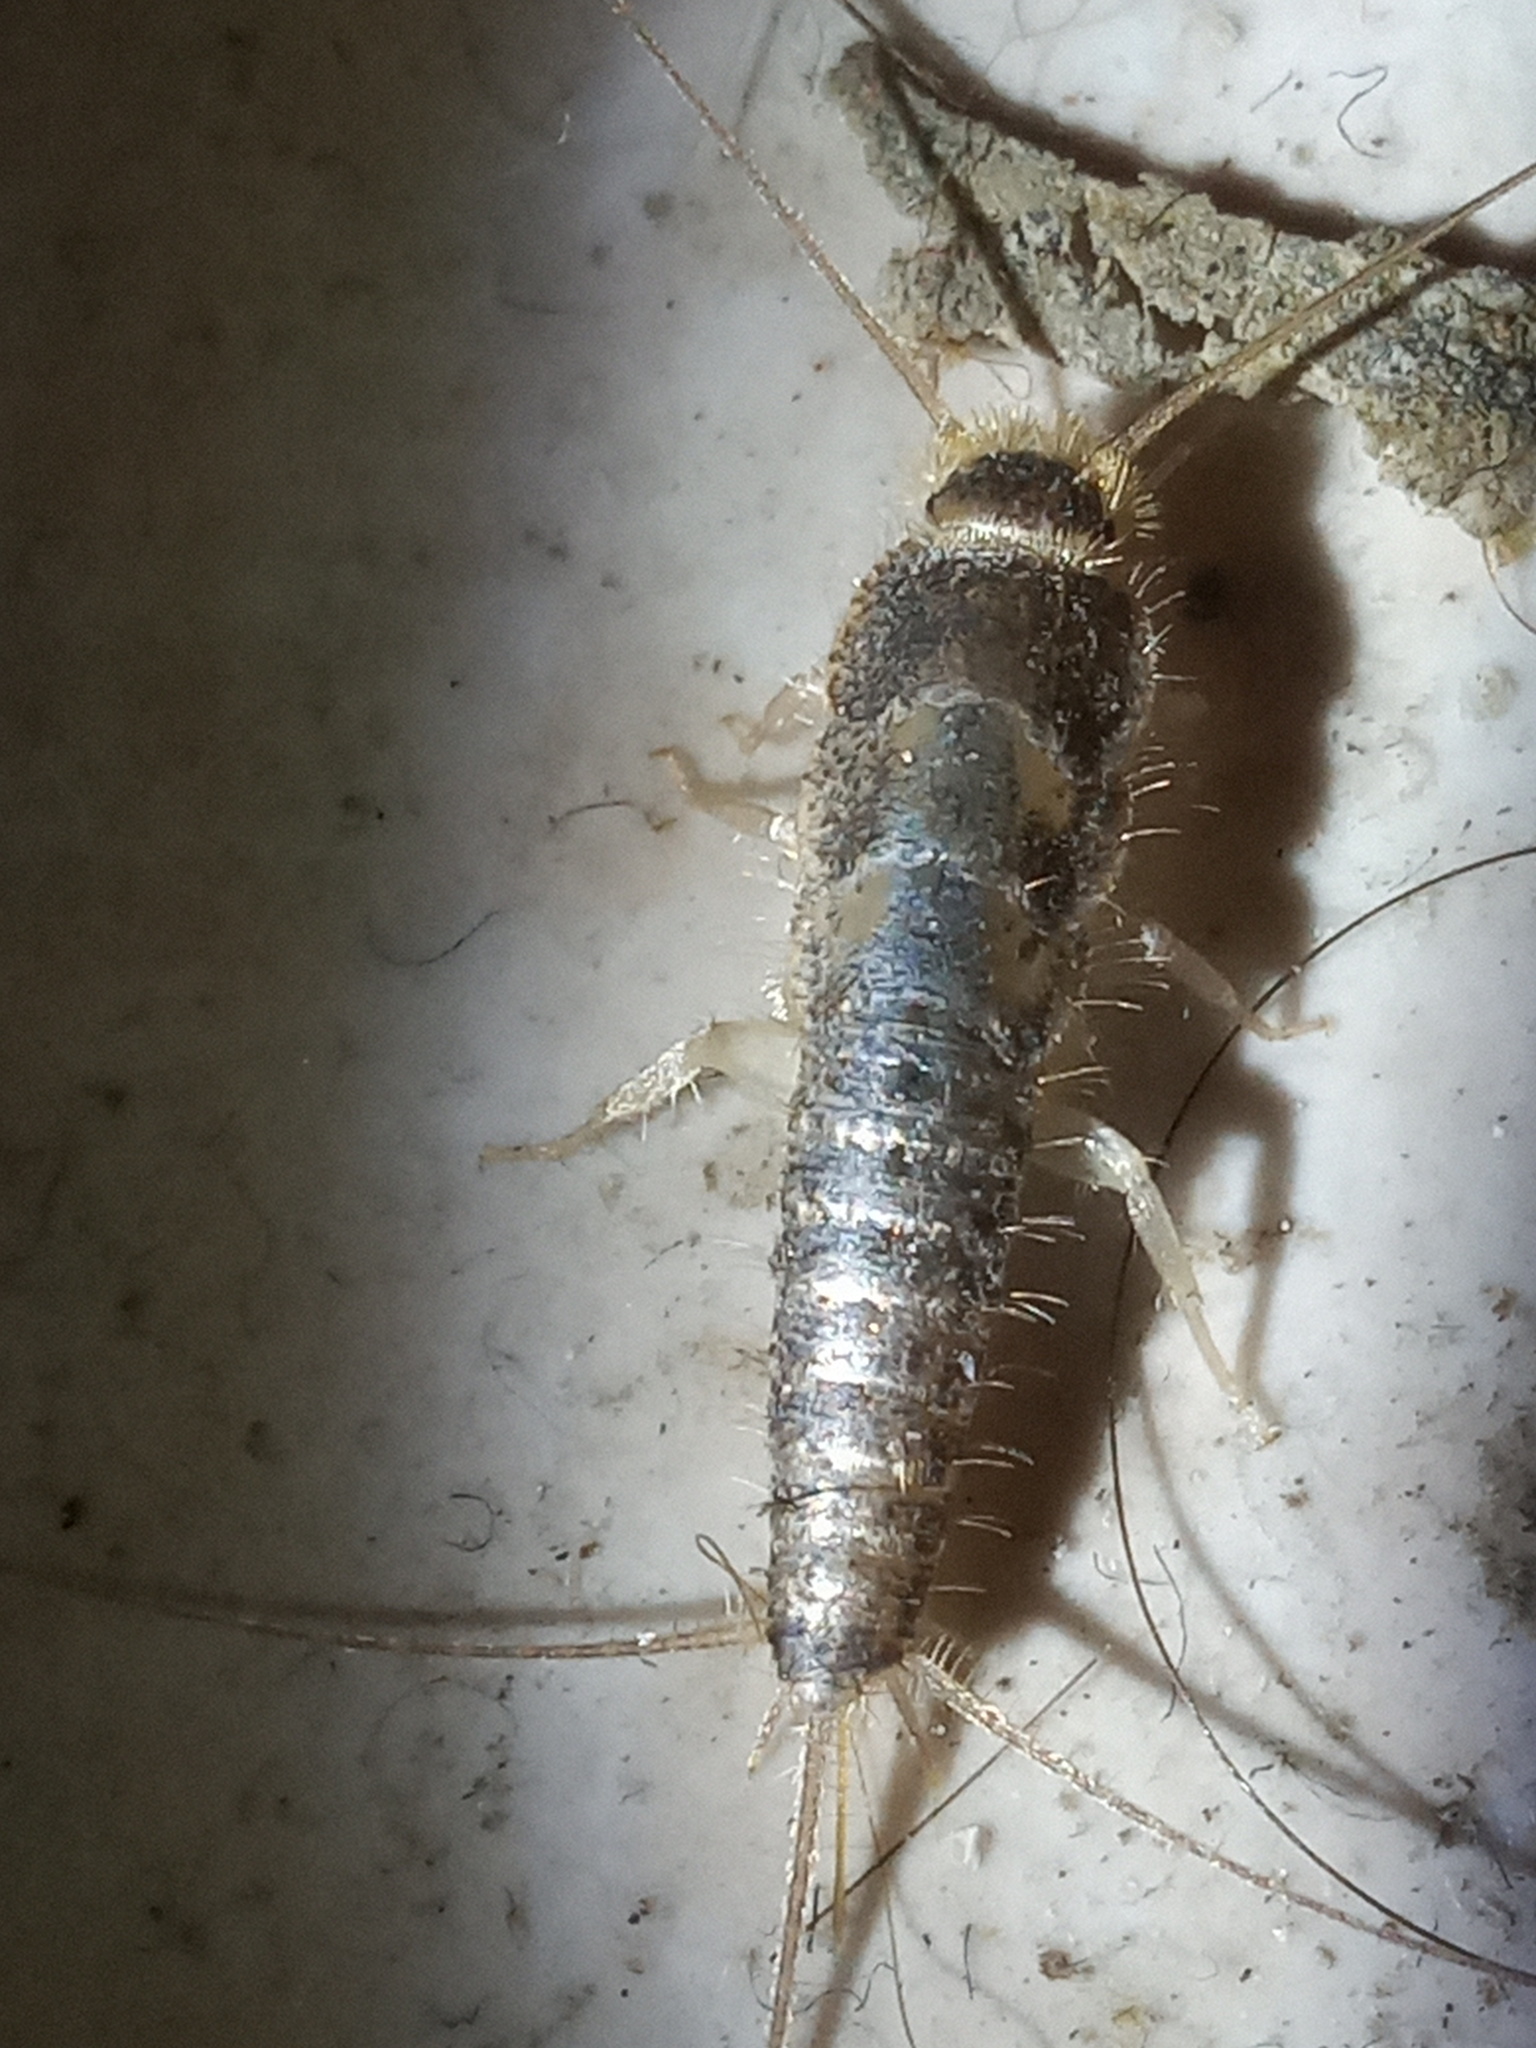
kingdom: Animalia
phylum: Arthropoda
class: Insecta
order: Zygentoma
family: Lepismatidae
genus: Ctenolepisma
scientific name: Ctenolepisma longicaudatum
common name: Silverfish
